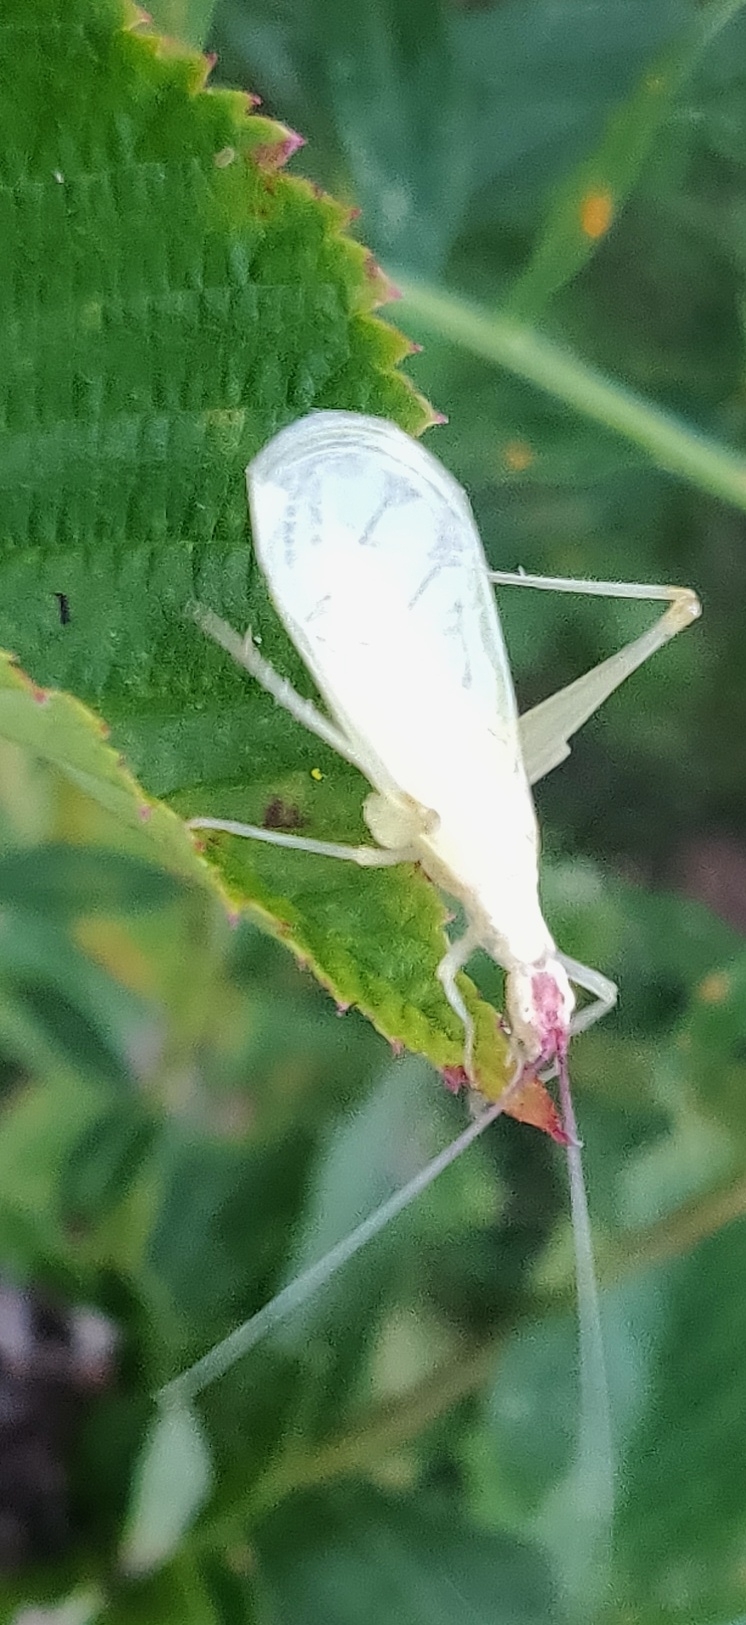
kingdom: Animalia
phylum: Arthropoda
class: Insecta
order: Orthoptera
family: Gryllidae
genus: Oecanthus
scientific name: Oecanthus latipennis
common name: Broad-winged tree cricket
